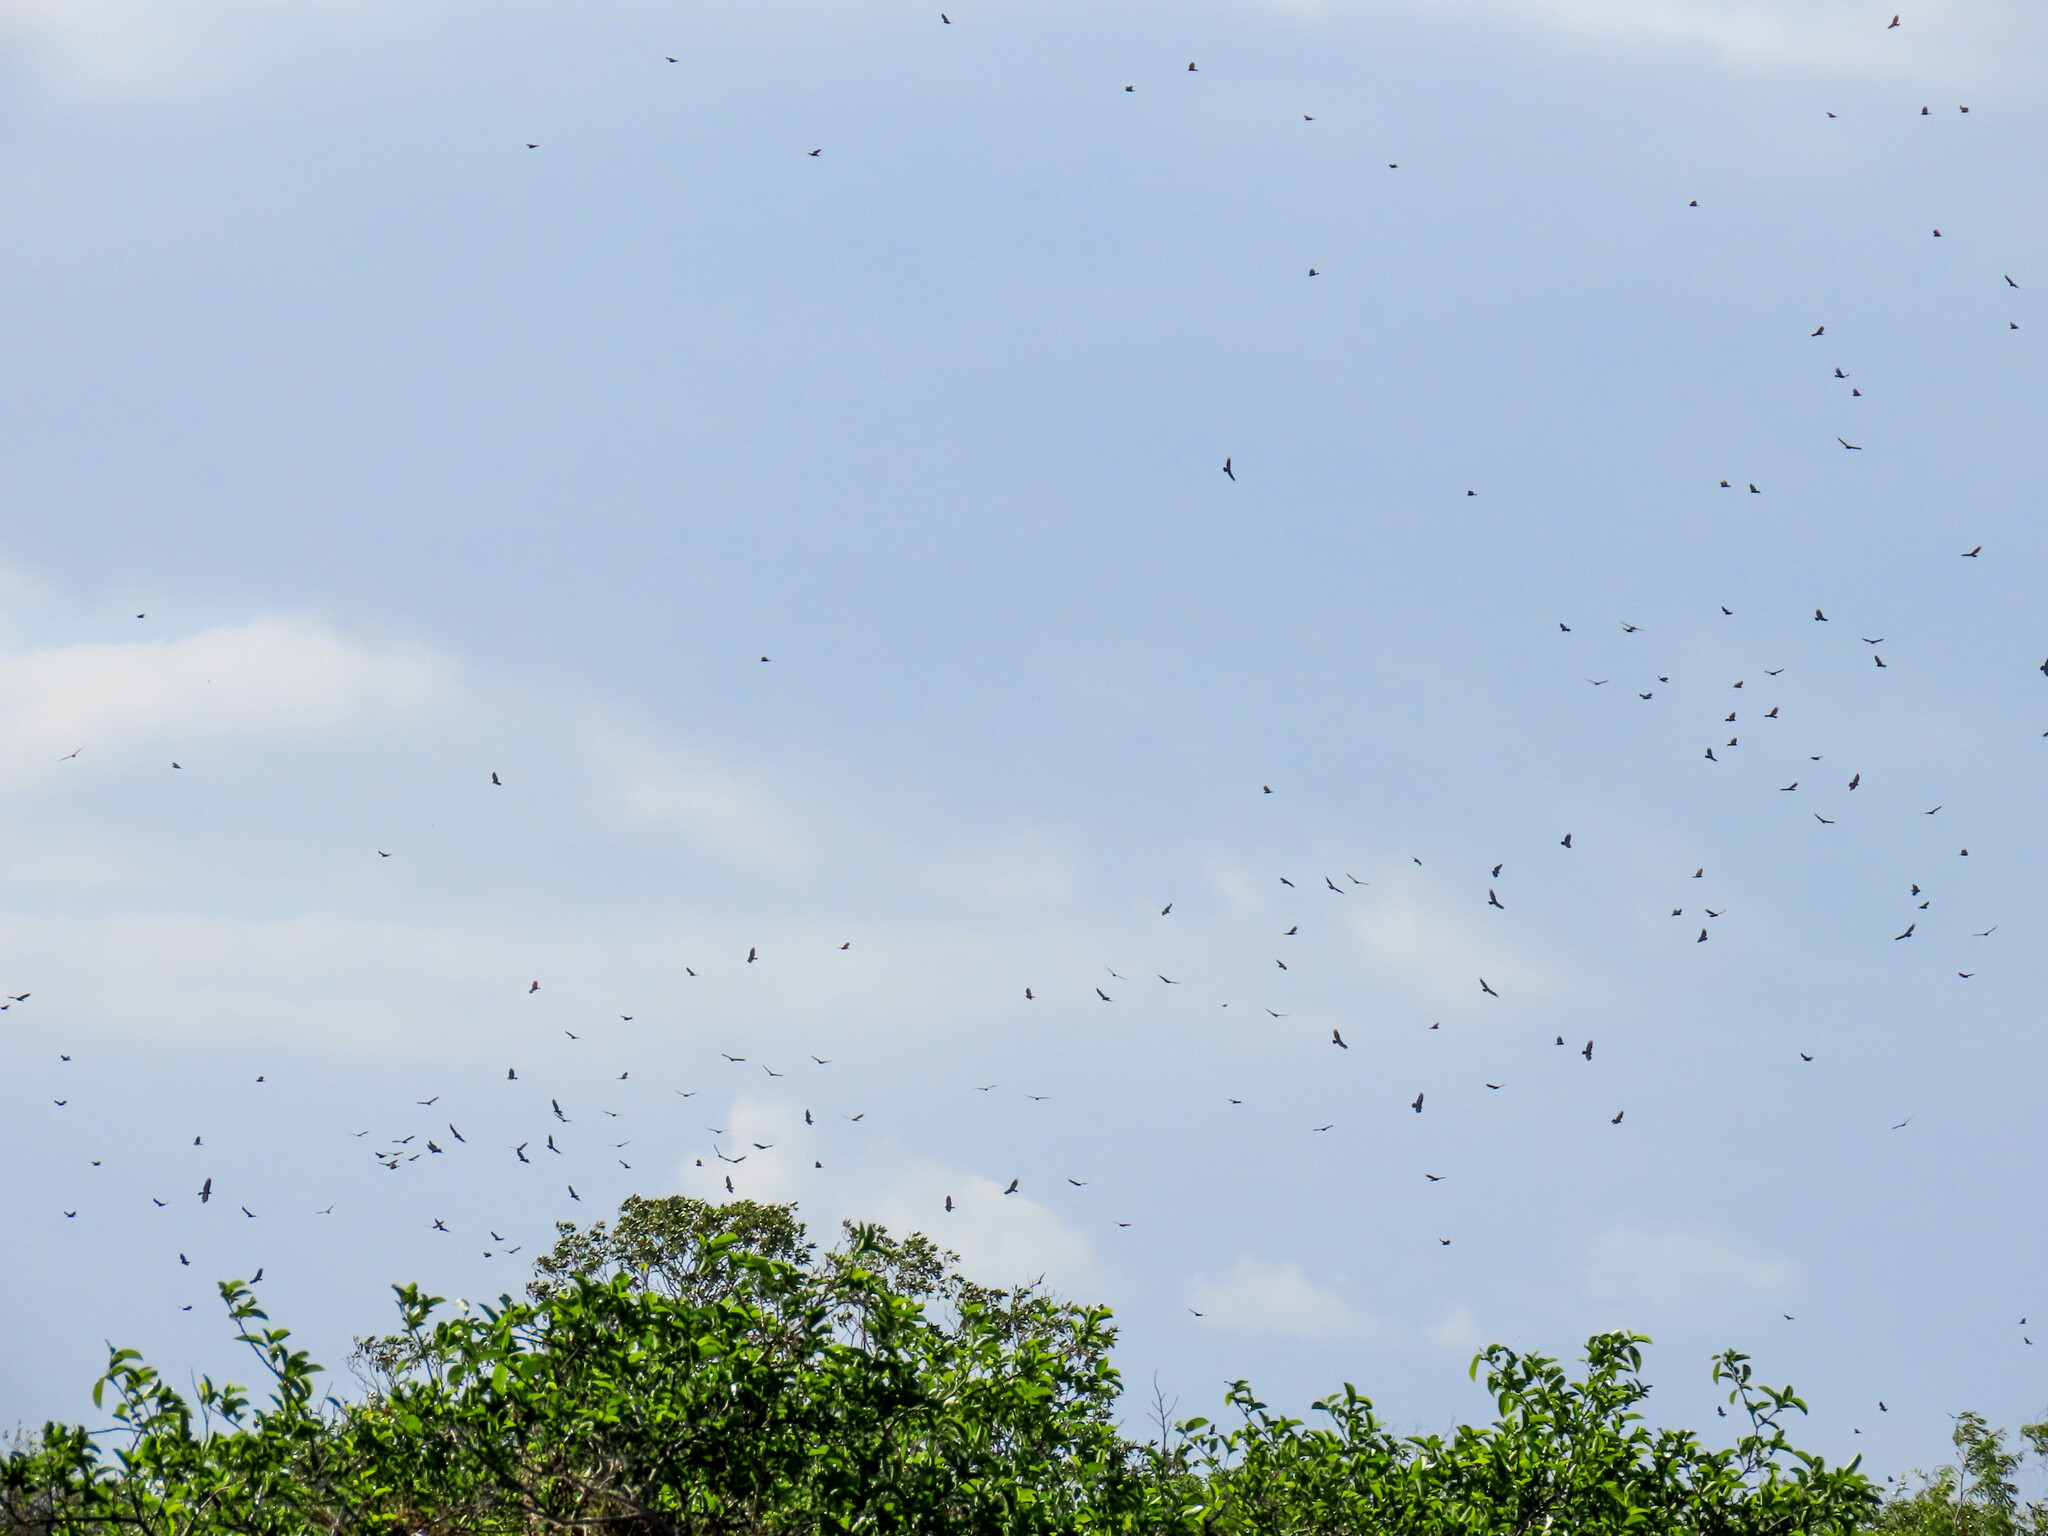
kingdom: Animalia
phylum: Chordata
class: Aves
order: Accipitriformes
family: Cathartidae
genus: Cathartes
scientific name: Cathartes aura
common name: Turkey vulture
